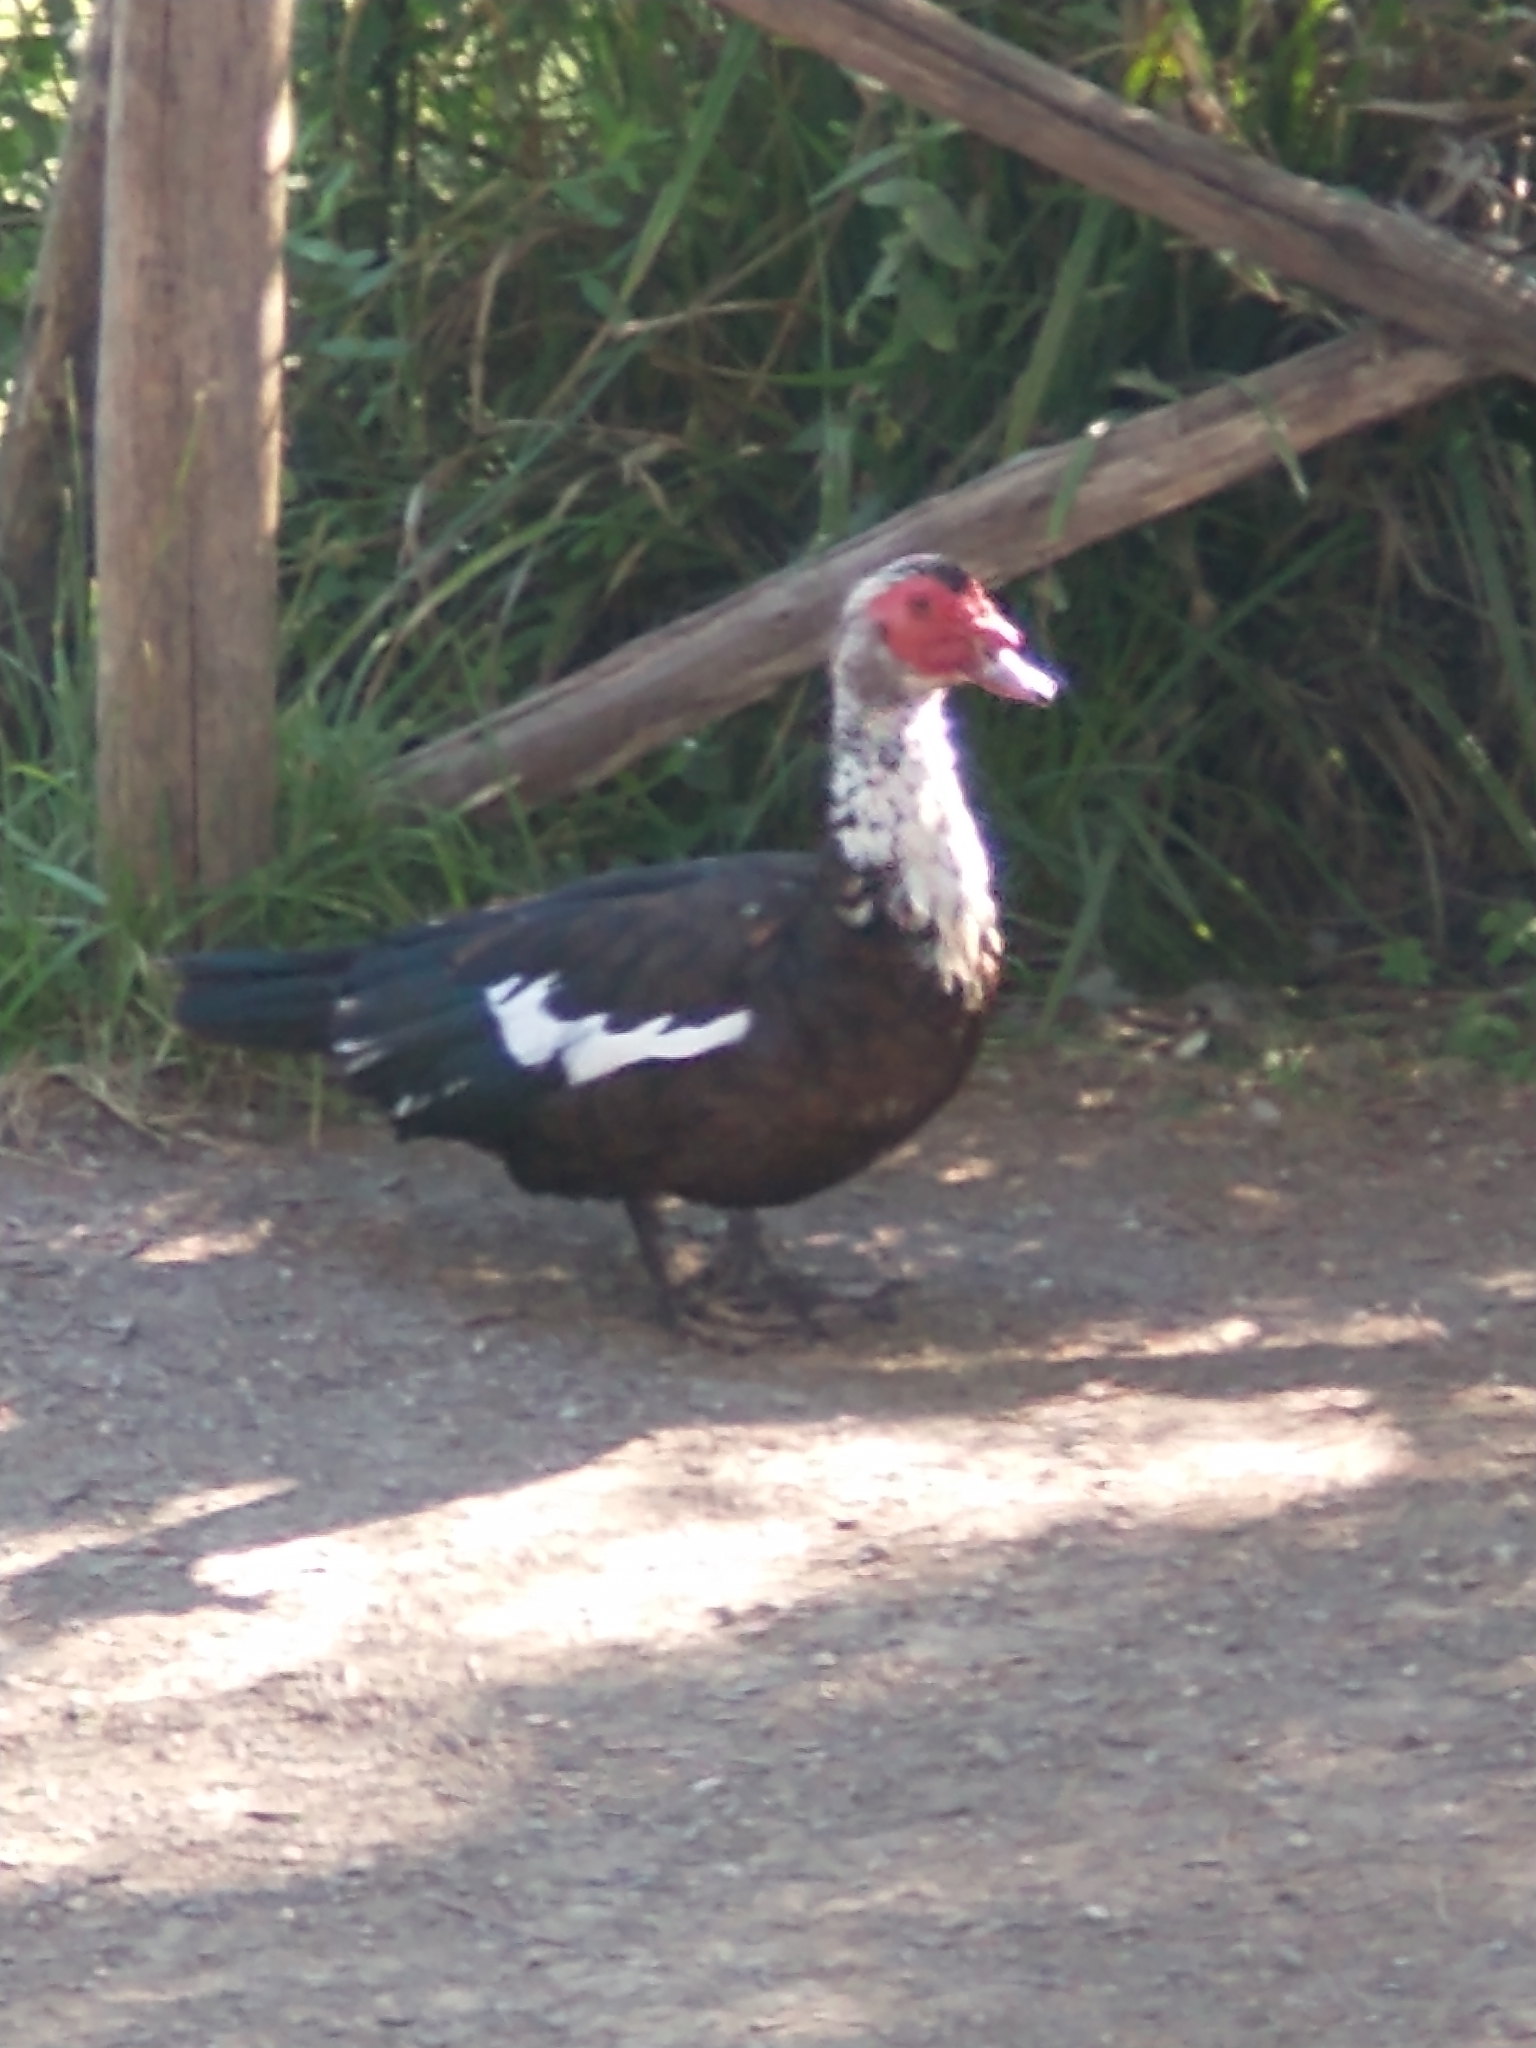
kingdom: Animalia
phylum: Chordata
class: Aves
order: Anseriformes
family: Anatidae
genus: Cairina
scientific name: Cairina moschata
